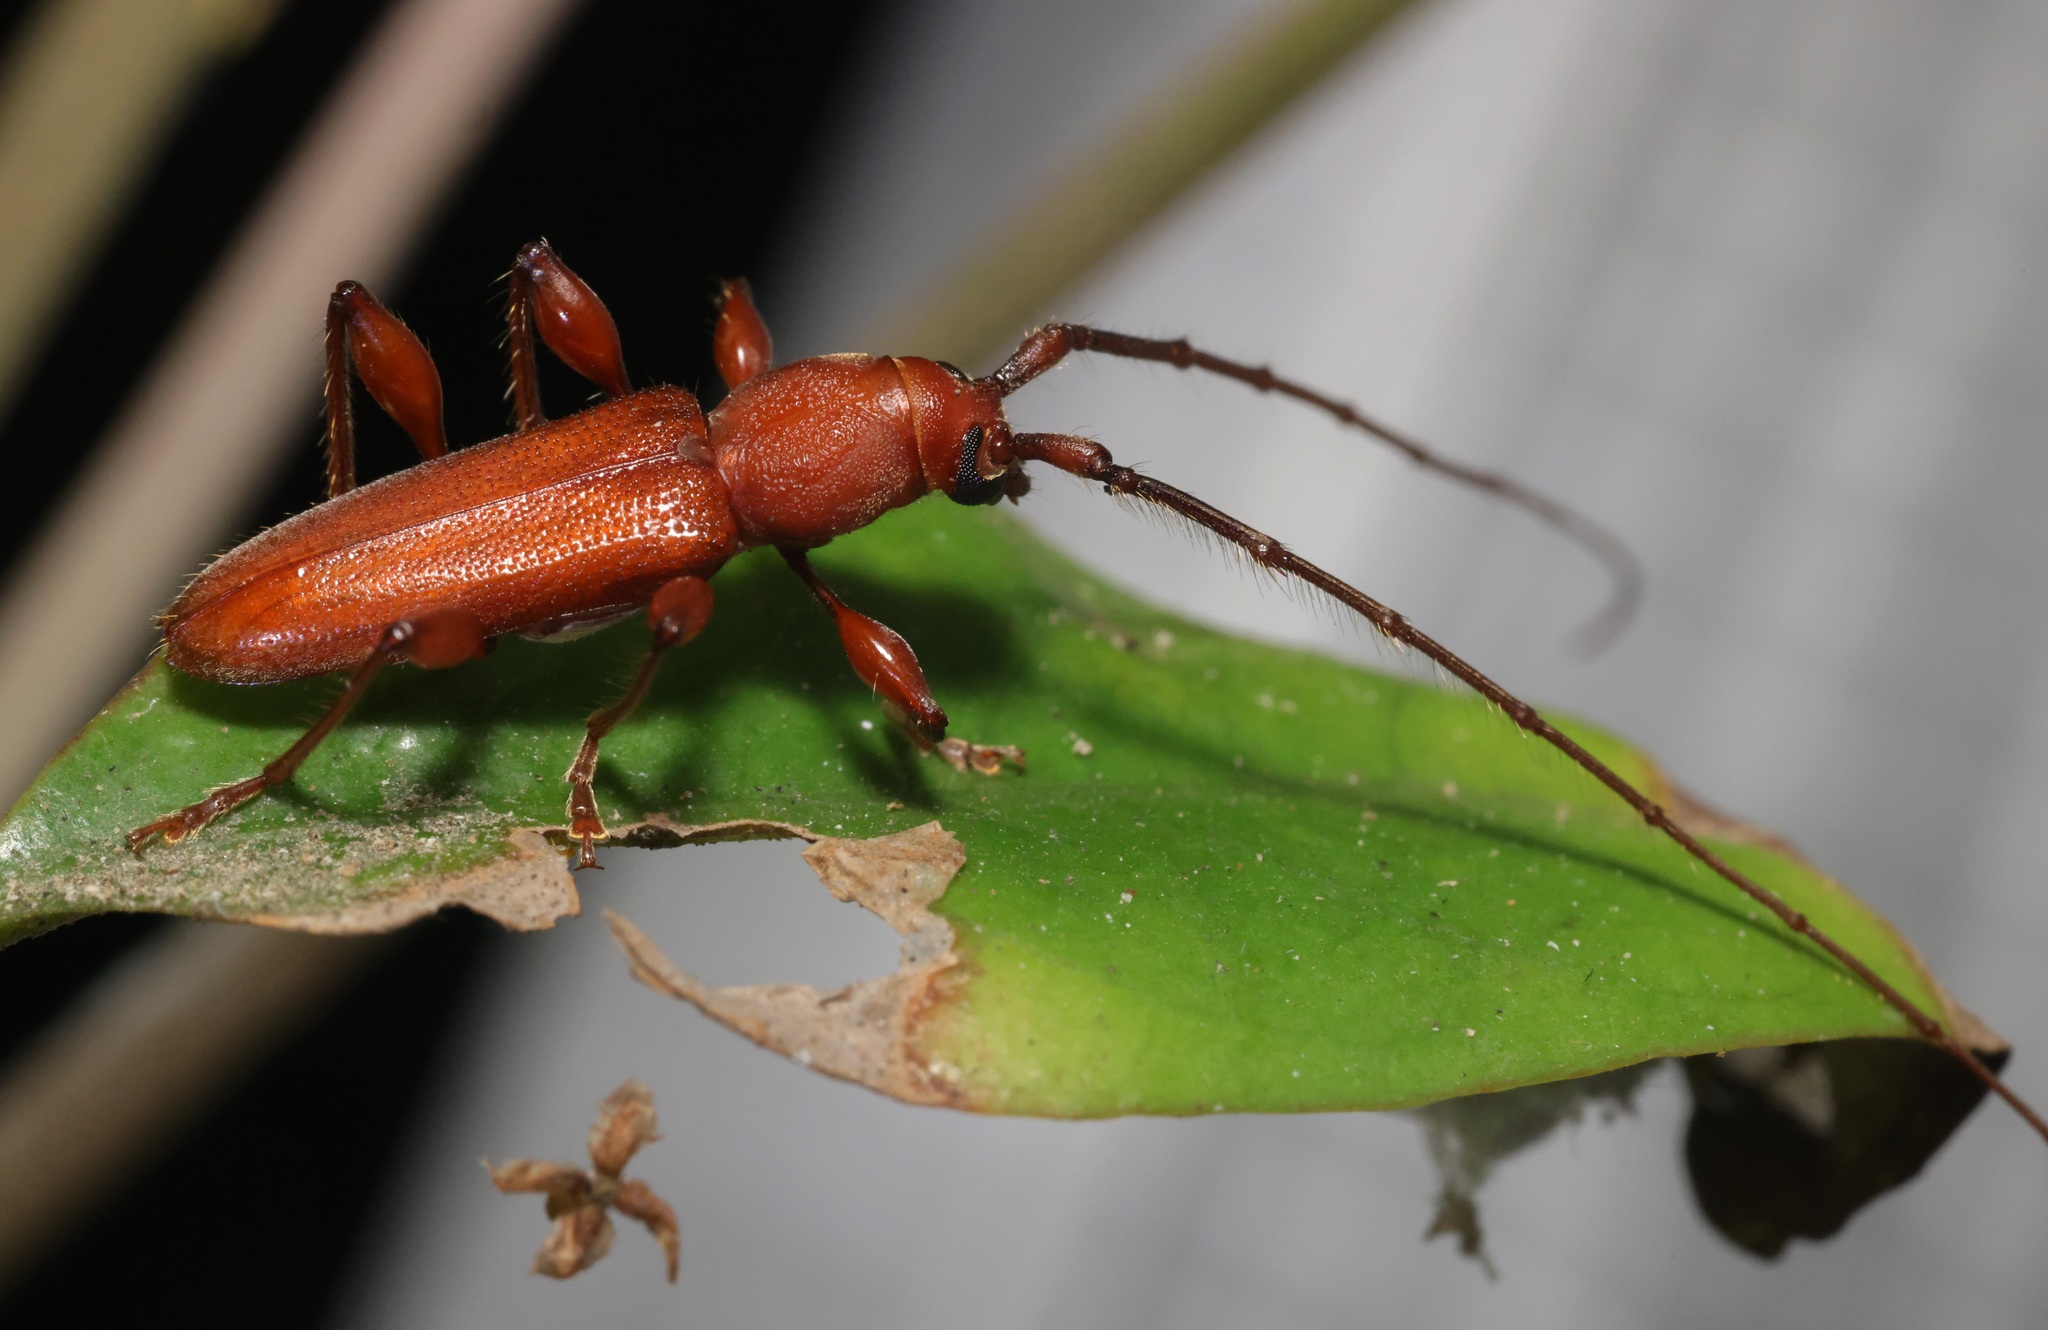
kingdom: Animalia
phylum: Arthropoda
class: Insecta
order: Coleoptera
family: Cerambycidae
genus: Nysina
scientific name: Nysina rufescens
